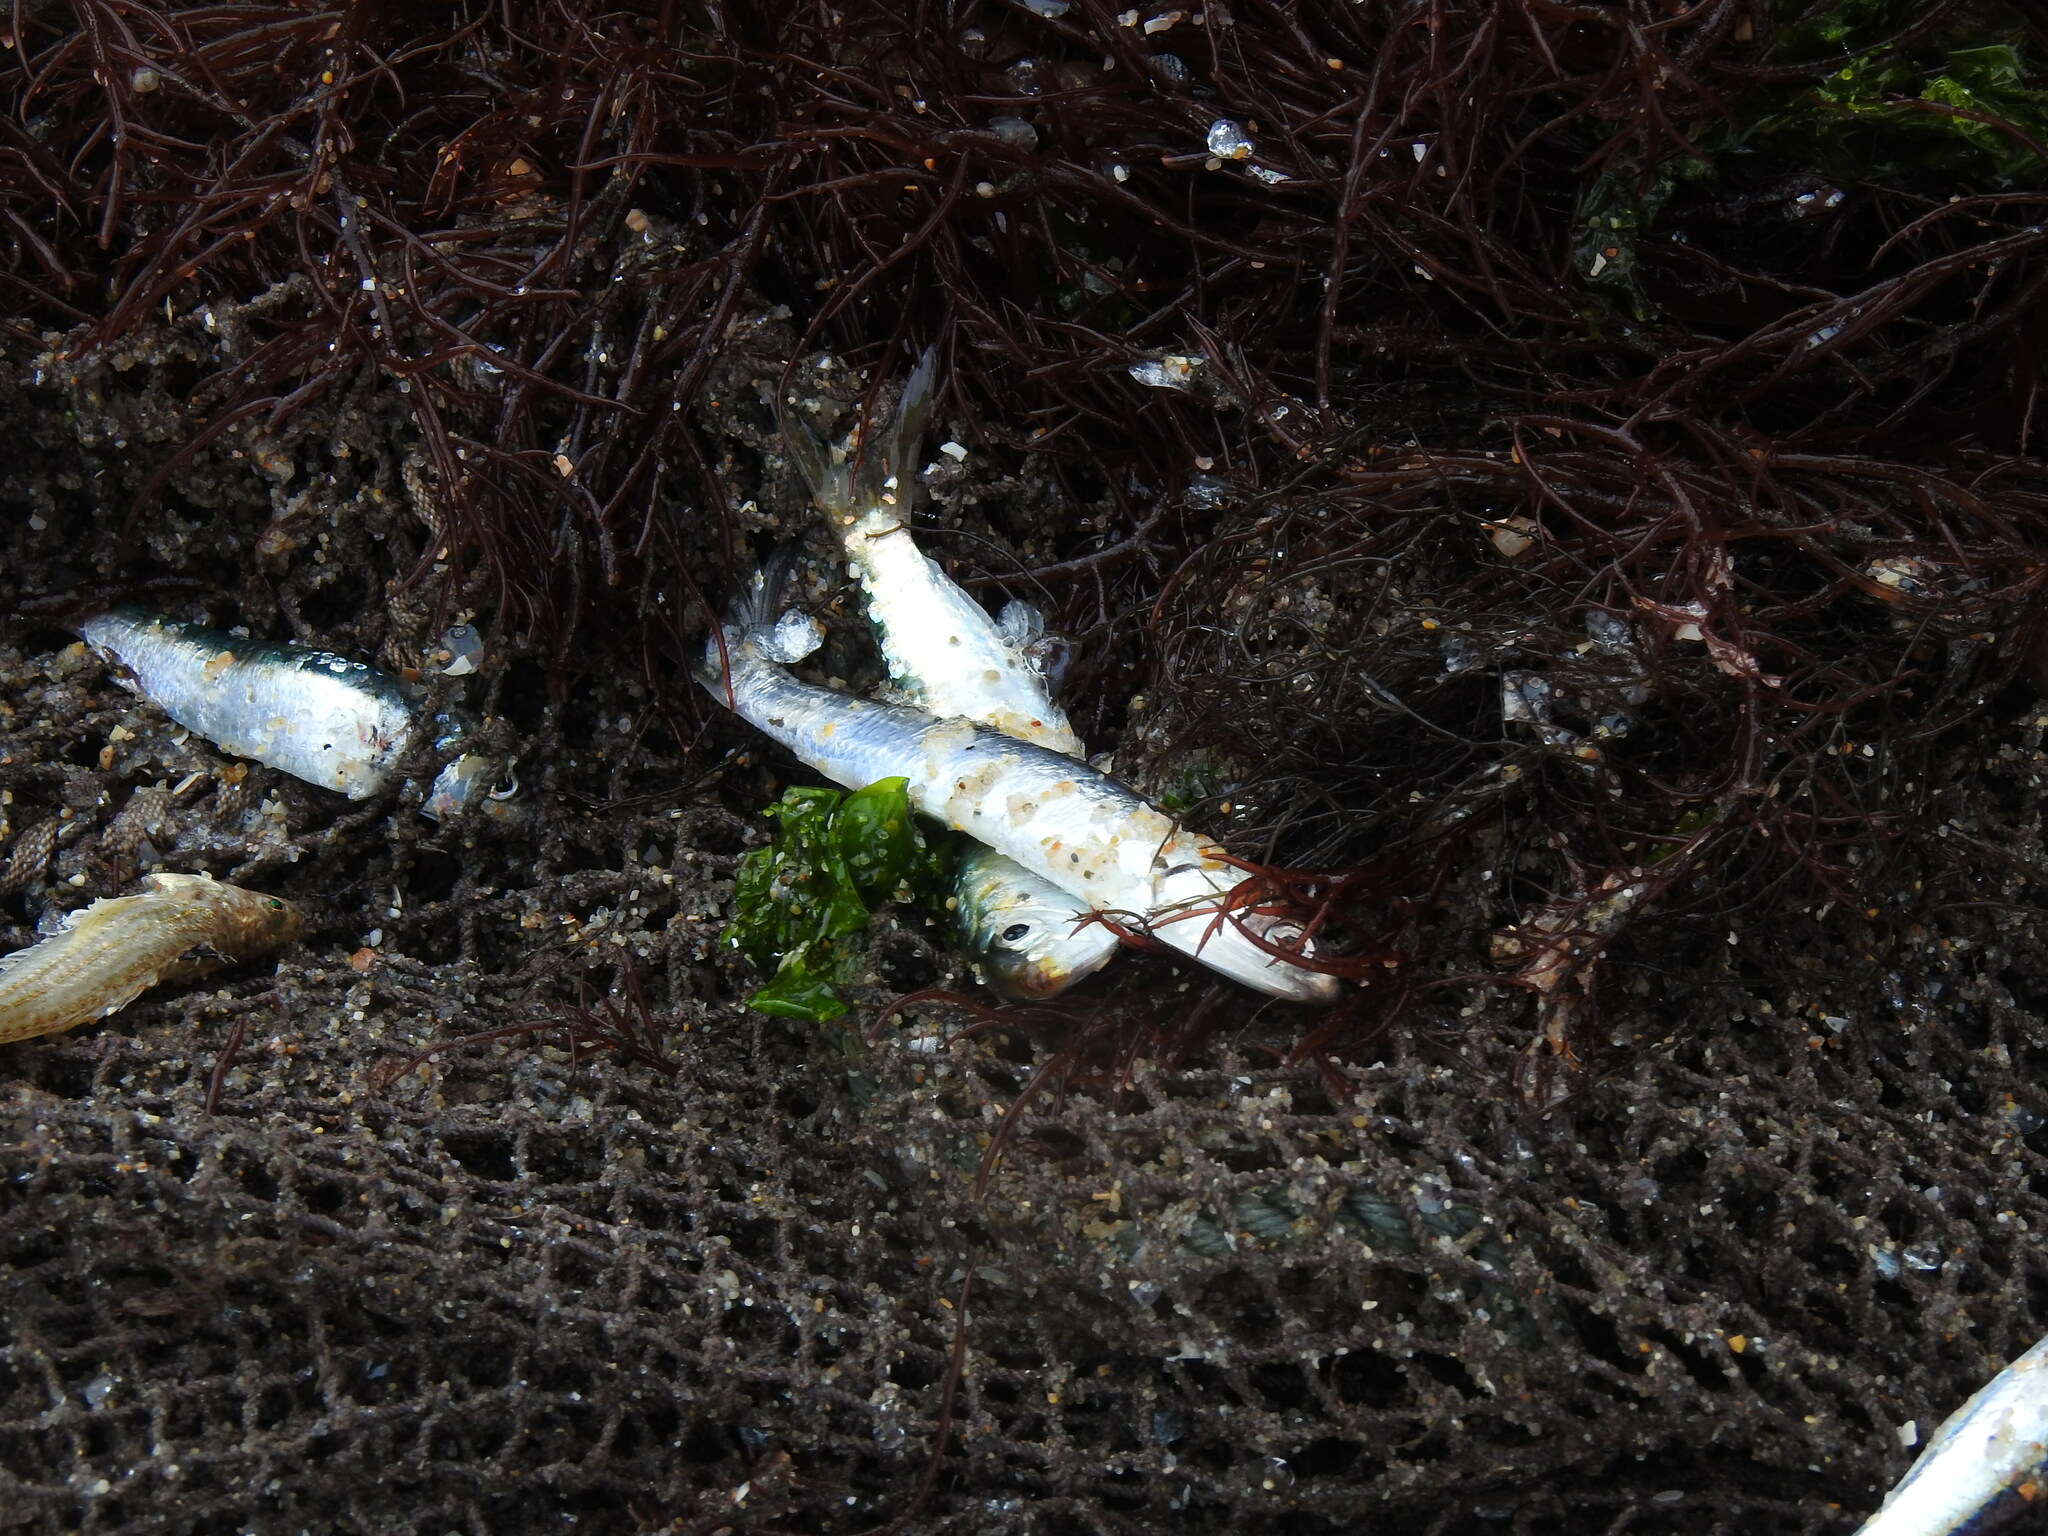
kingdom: Animalia
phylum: Chordata
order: Clupeiformes
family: Clupeidae
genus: Sardina
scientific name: Sardina pilchardus
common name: Pilchard
